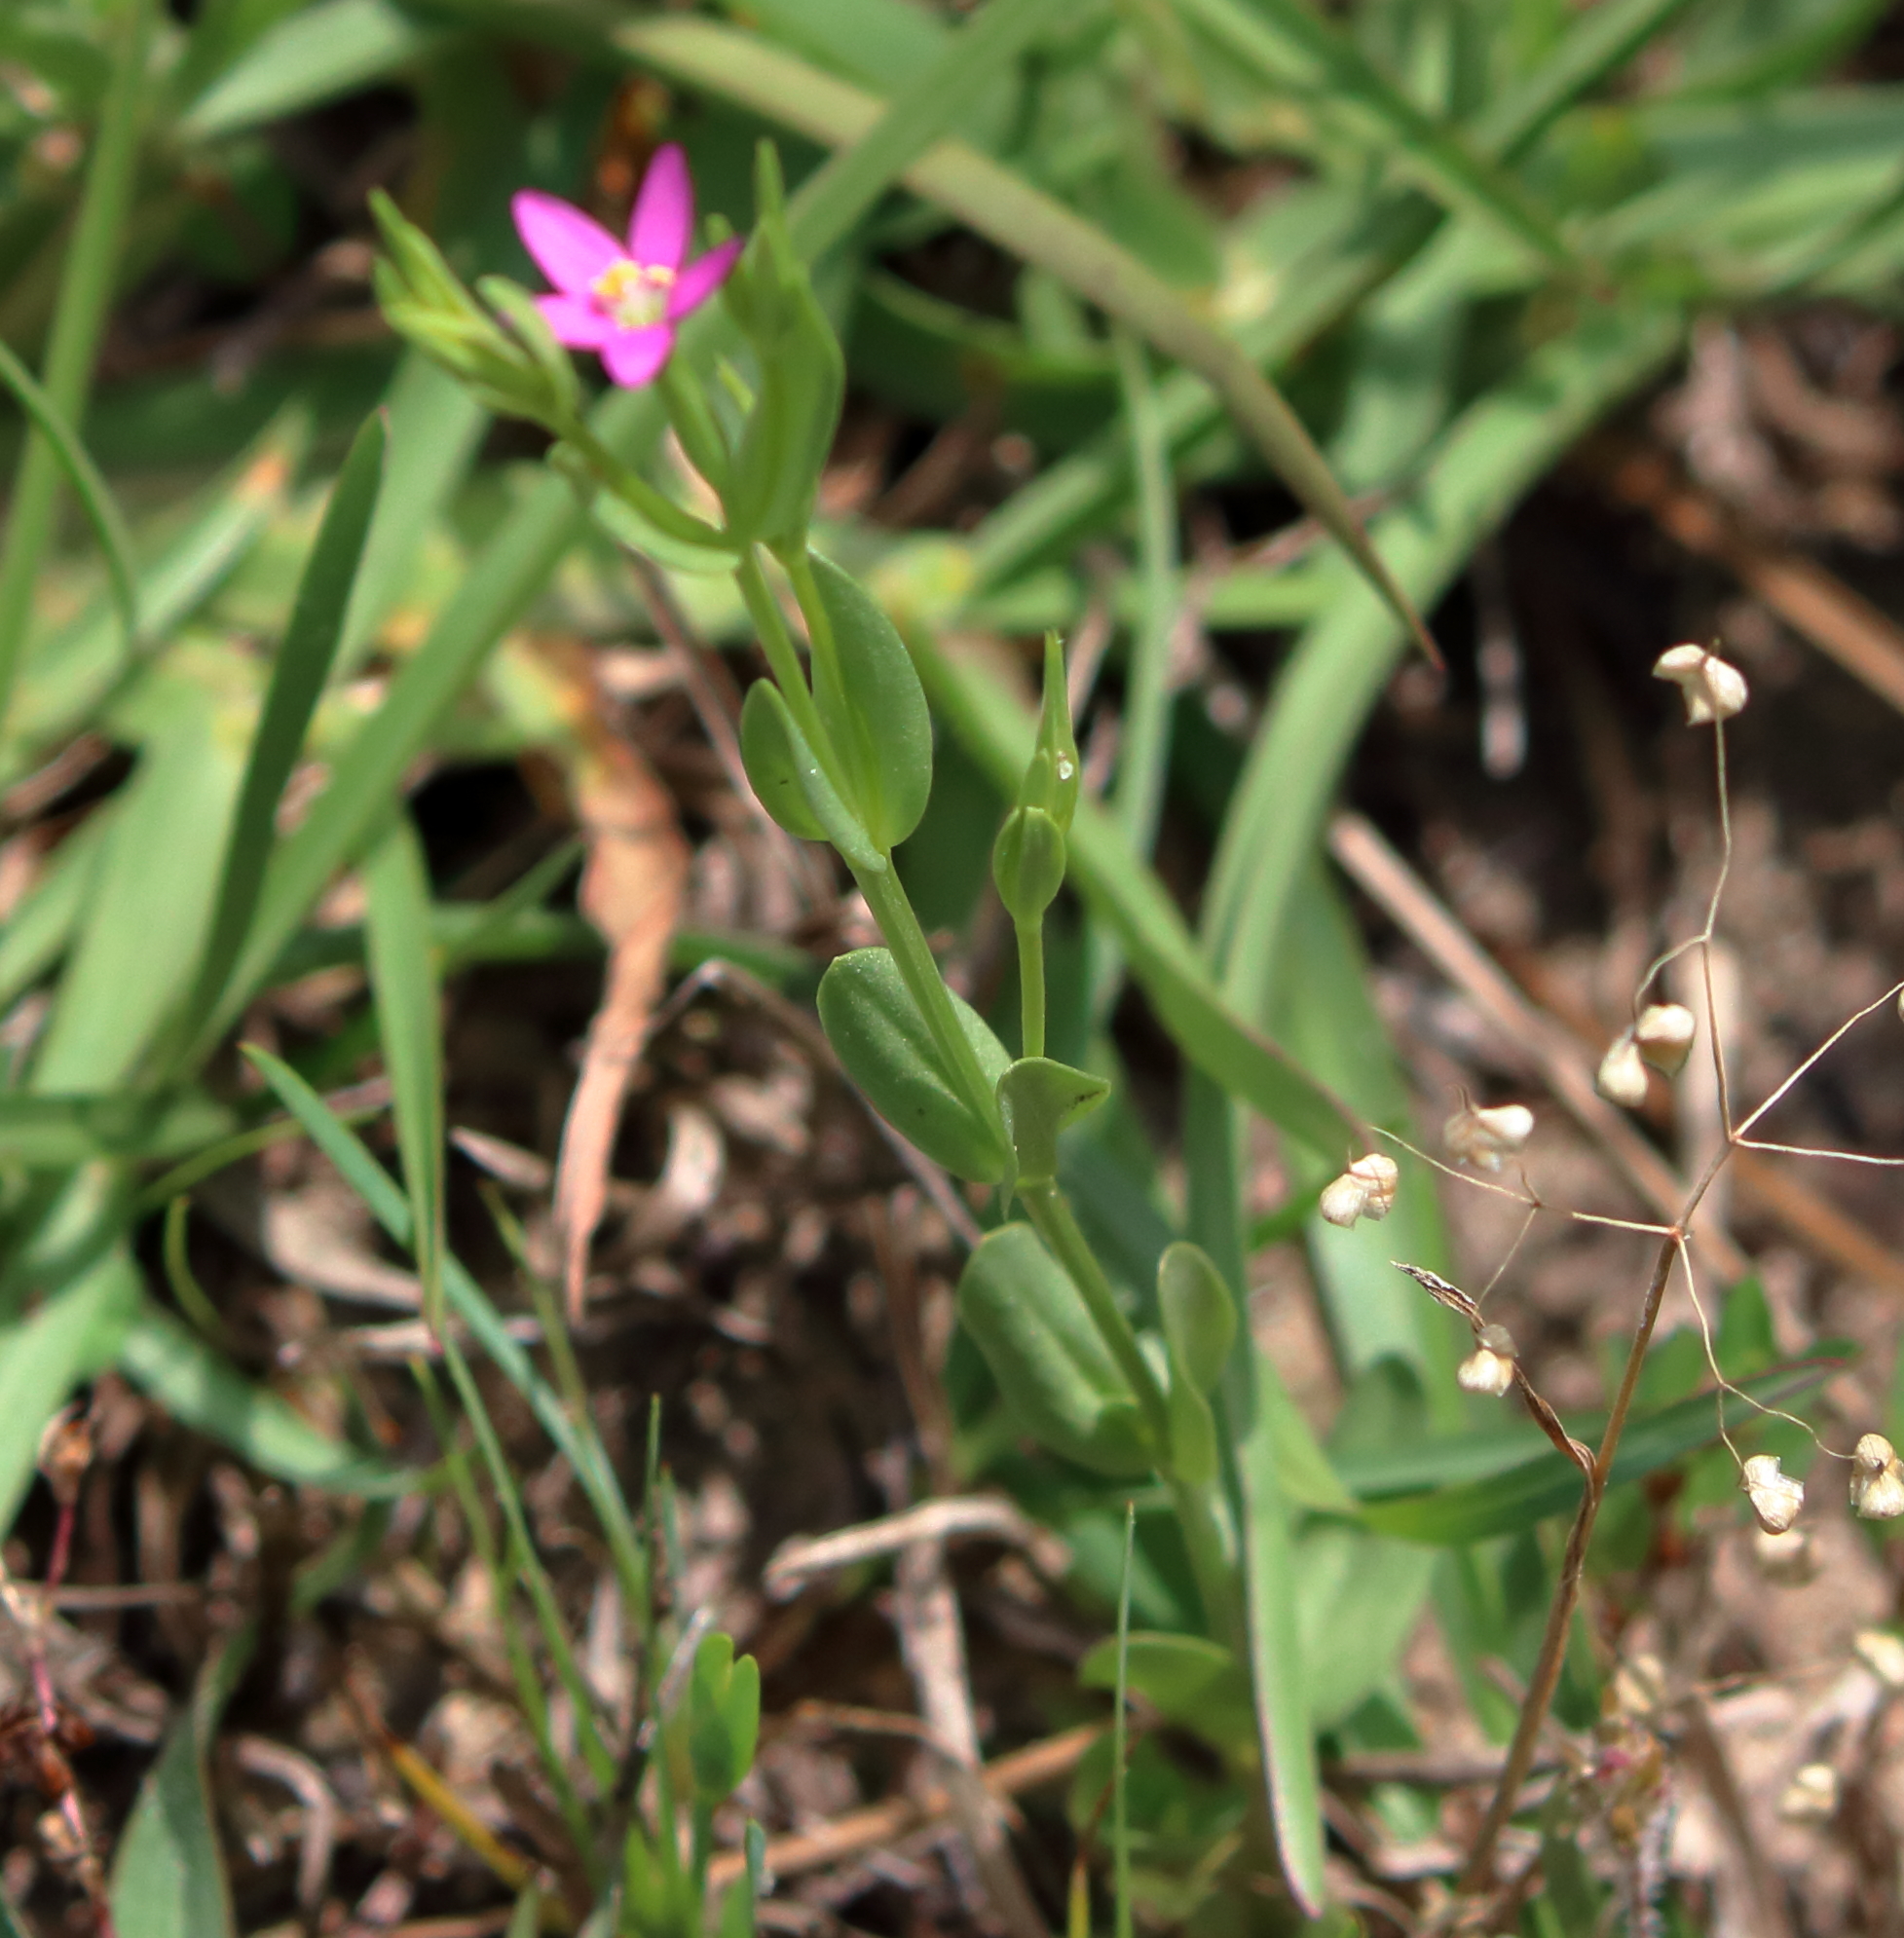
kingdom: Plantae
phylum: Tracheophyta
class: Magnoliopsida
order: Gentianales
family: Gentianaceae
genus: Centaurium
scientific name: Centaurium pulchellum
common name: Lesser centaury
